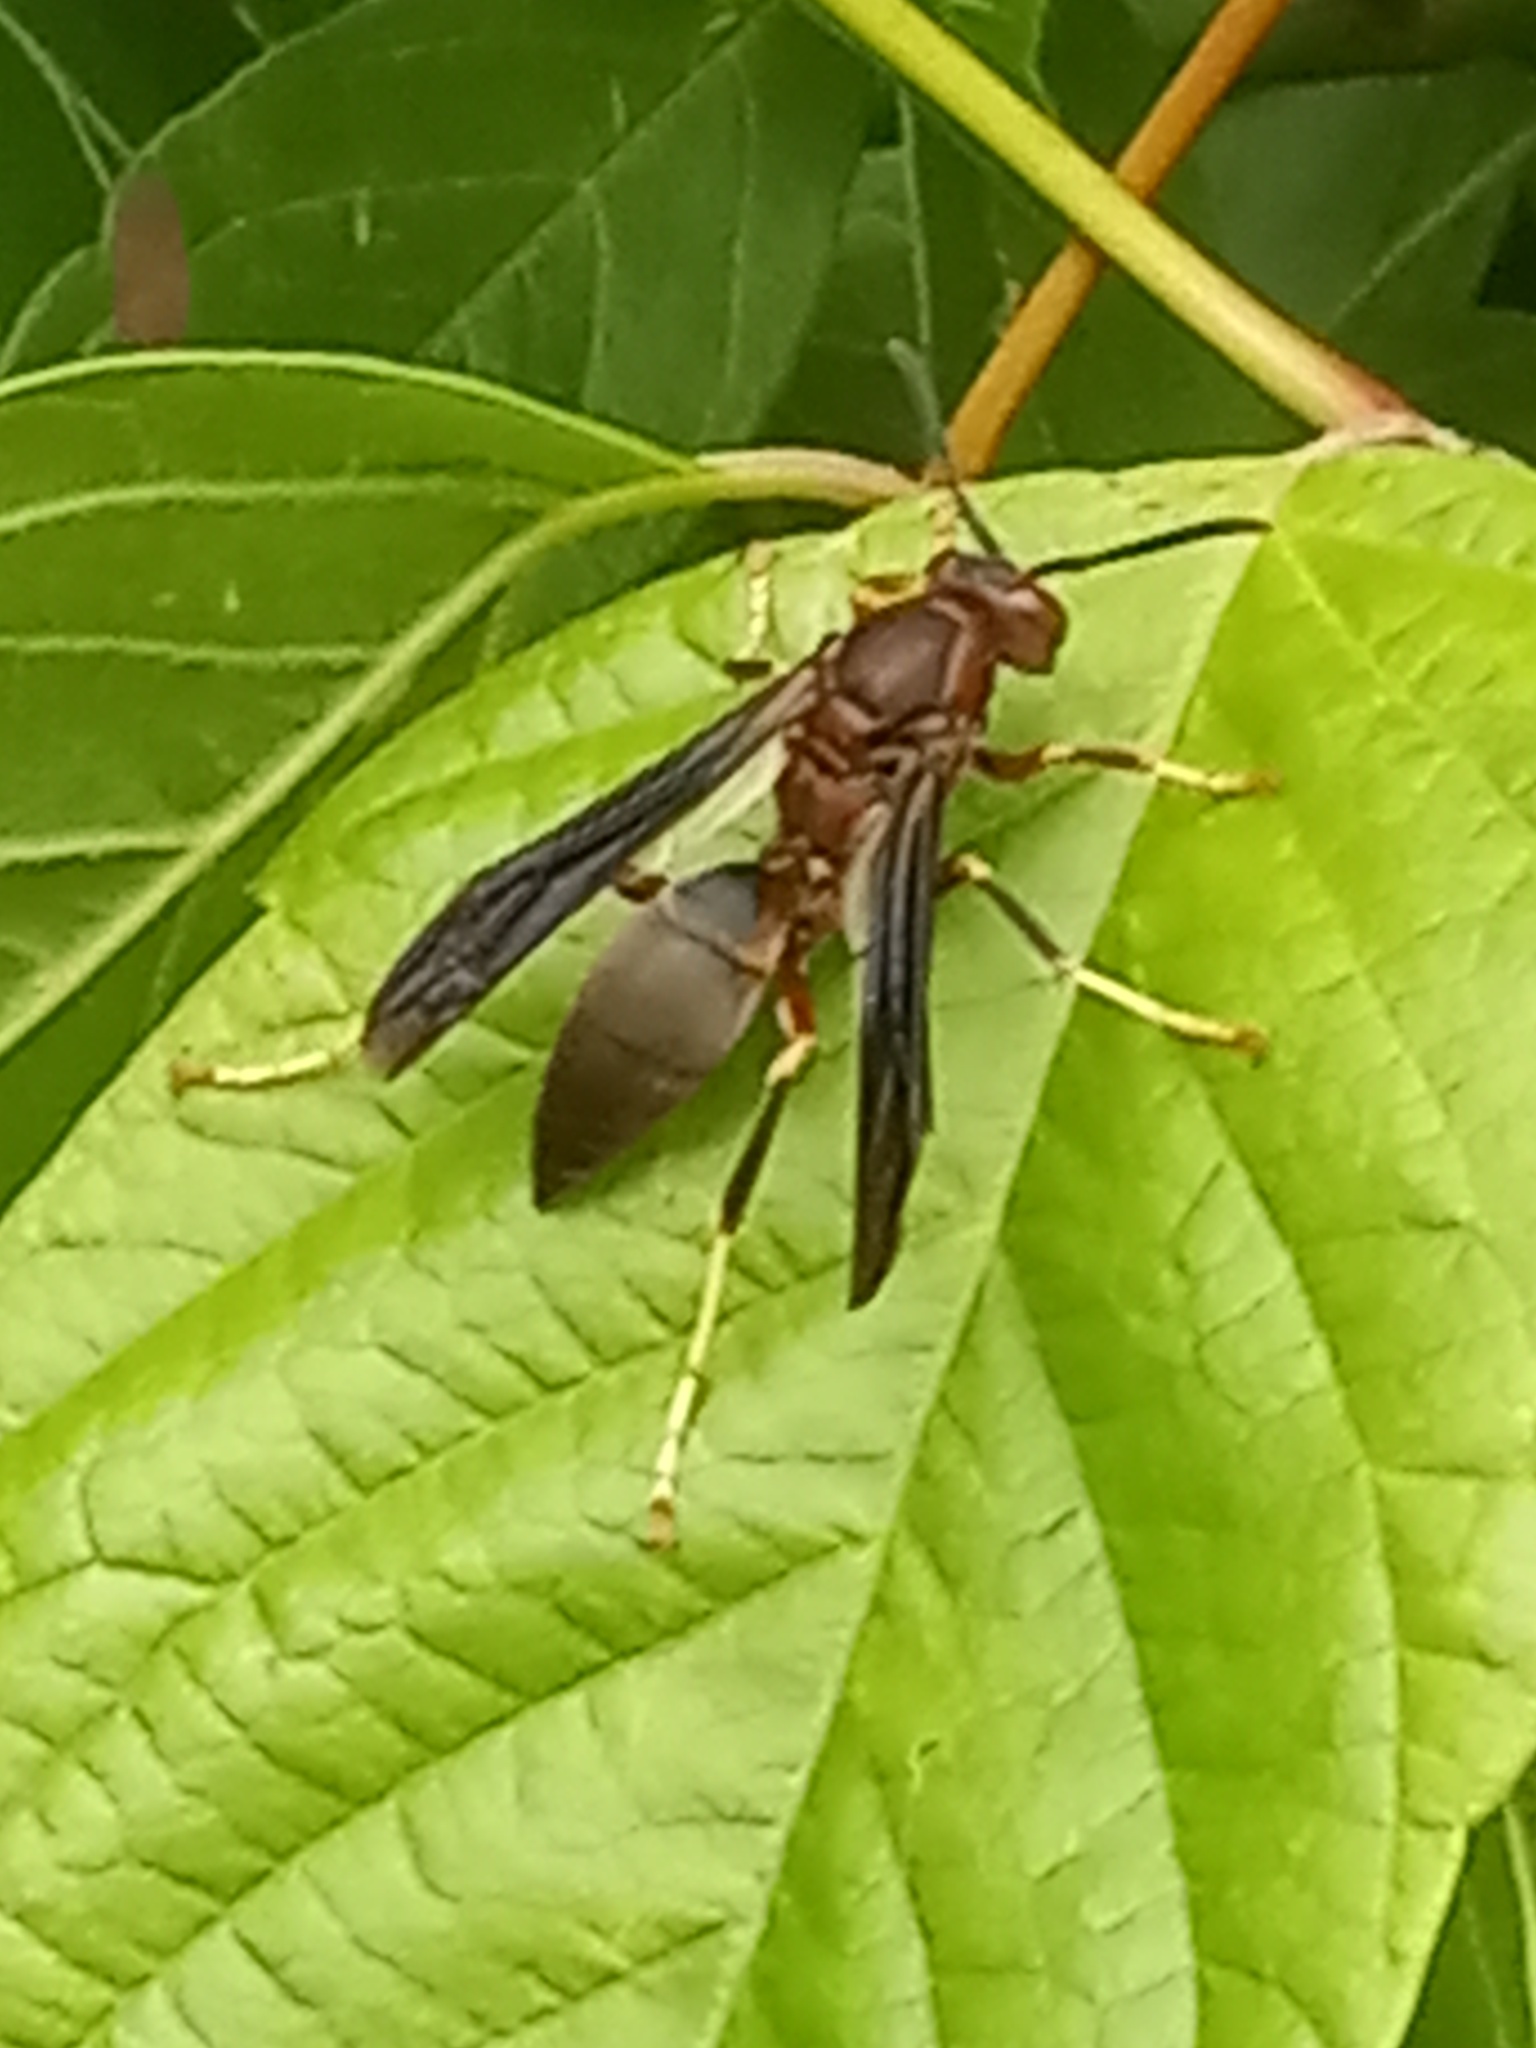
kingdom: Animalia
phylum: Arthropoda
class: Insecta
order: Hymenoptera
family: Eumenidae
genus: Polistes
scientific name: Polistes metricus
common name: Metric paper wasp
